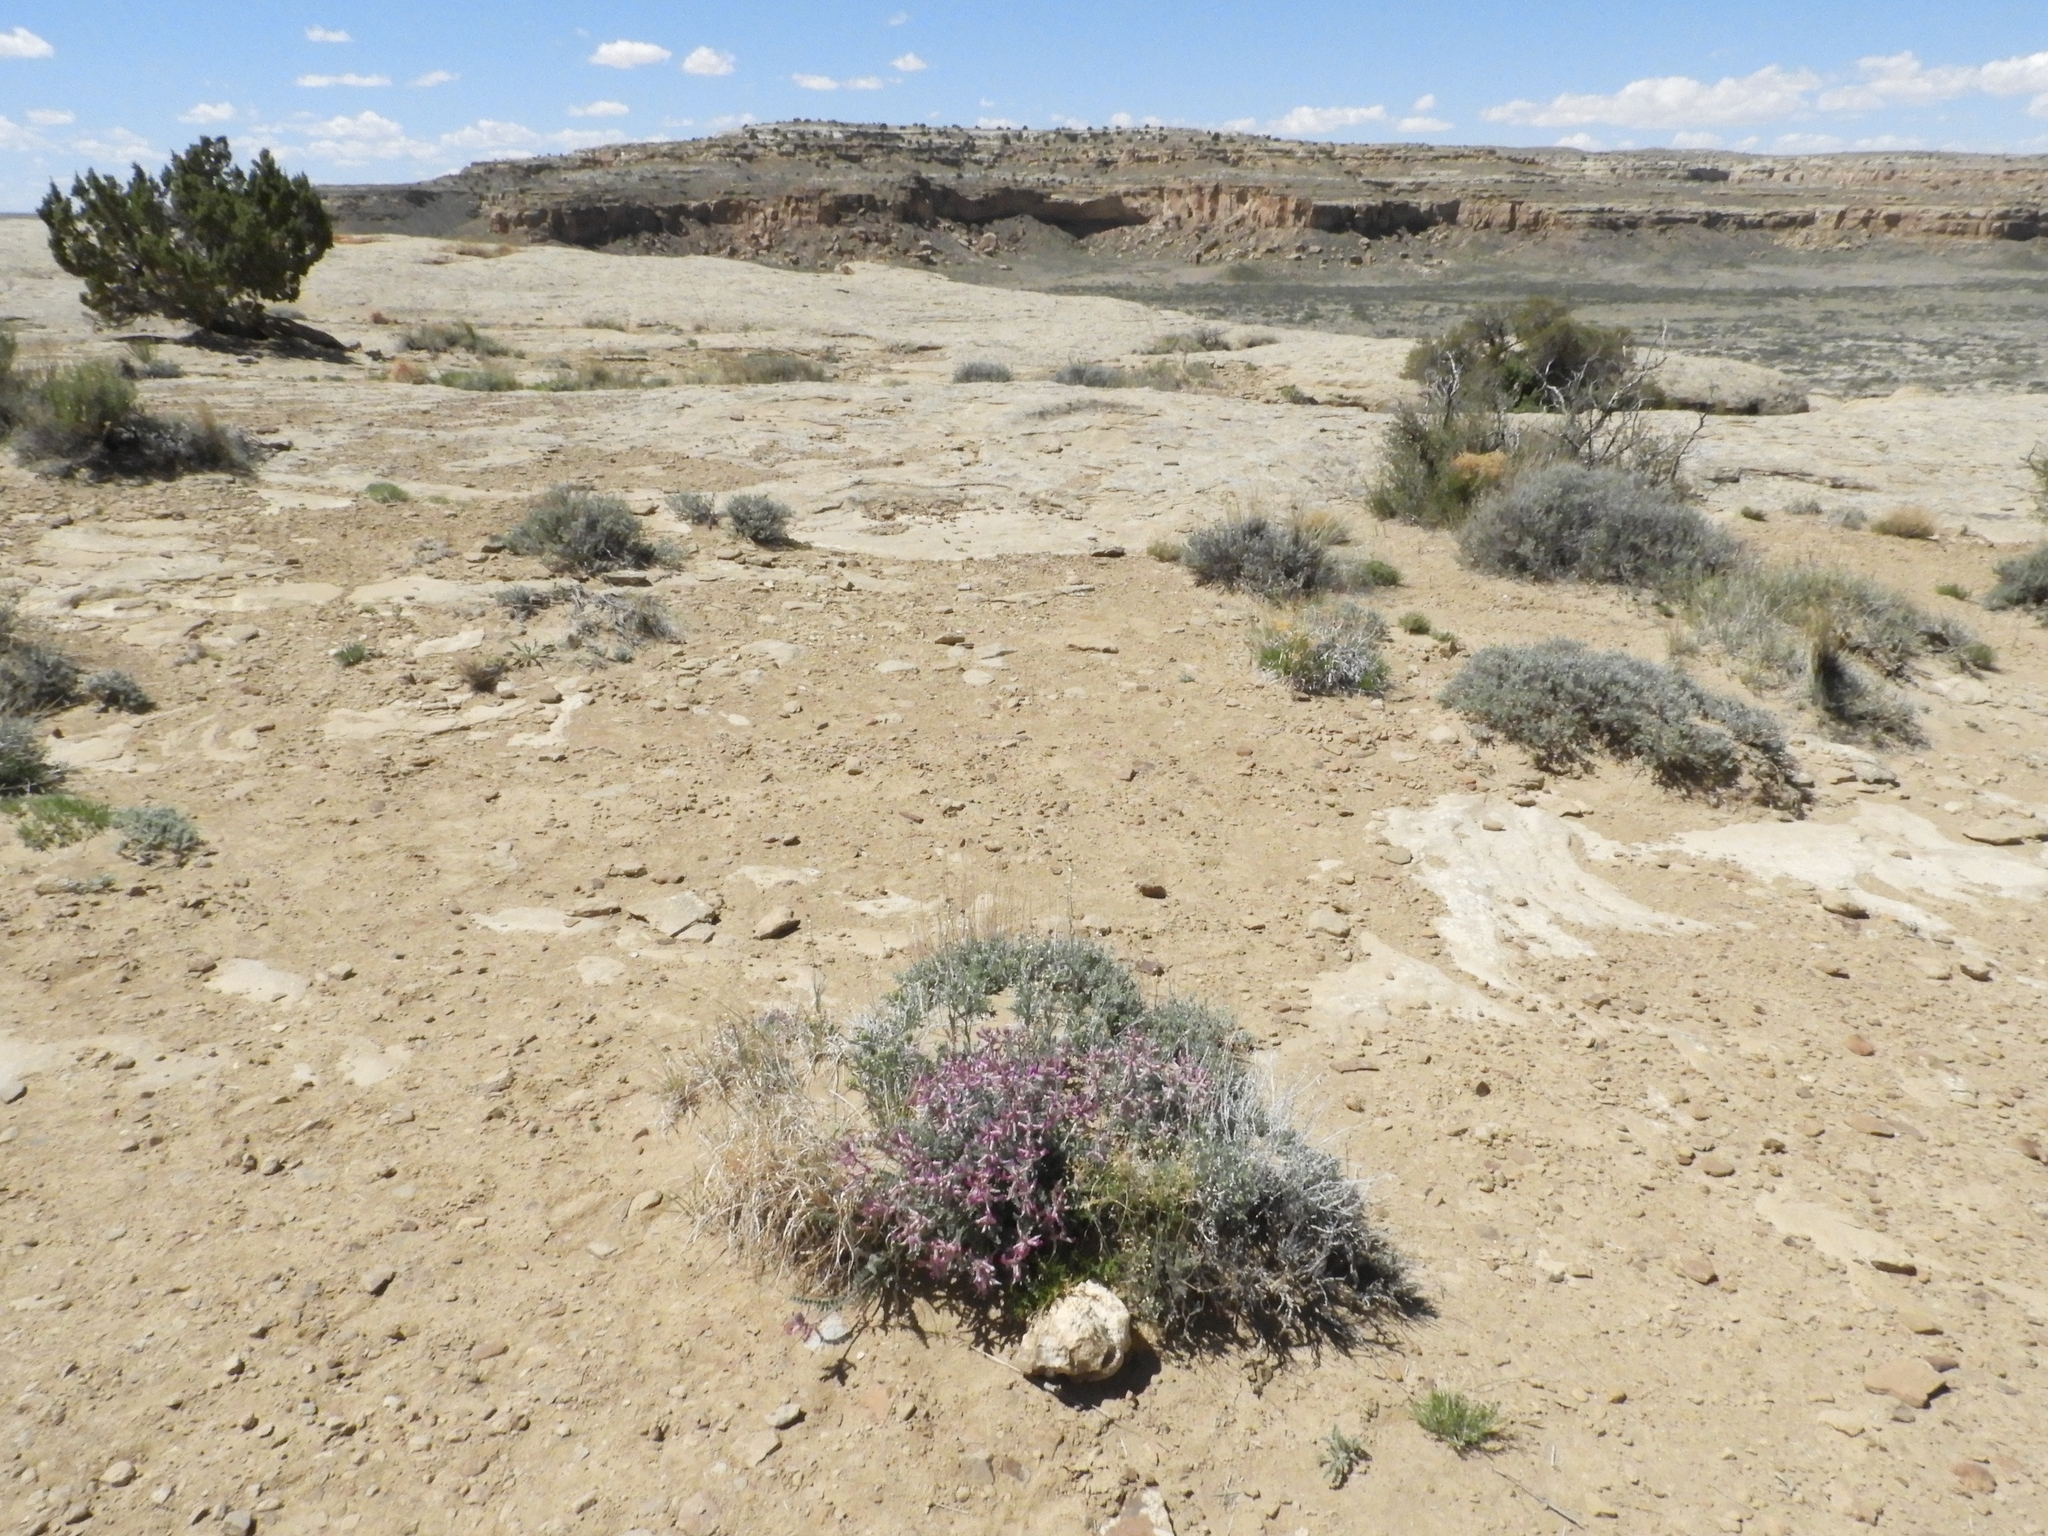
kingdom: Plantae
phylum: Tracheophyta
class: Magnoliopsida
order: Fabales
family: Fabaceae
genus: Astragalus
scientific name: Astragalus mollissimus
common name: Woolly locoweed
